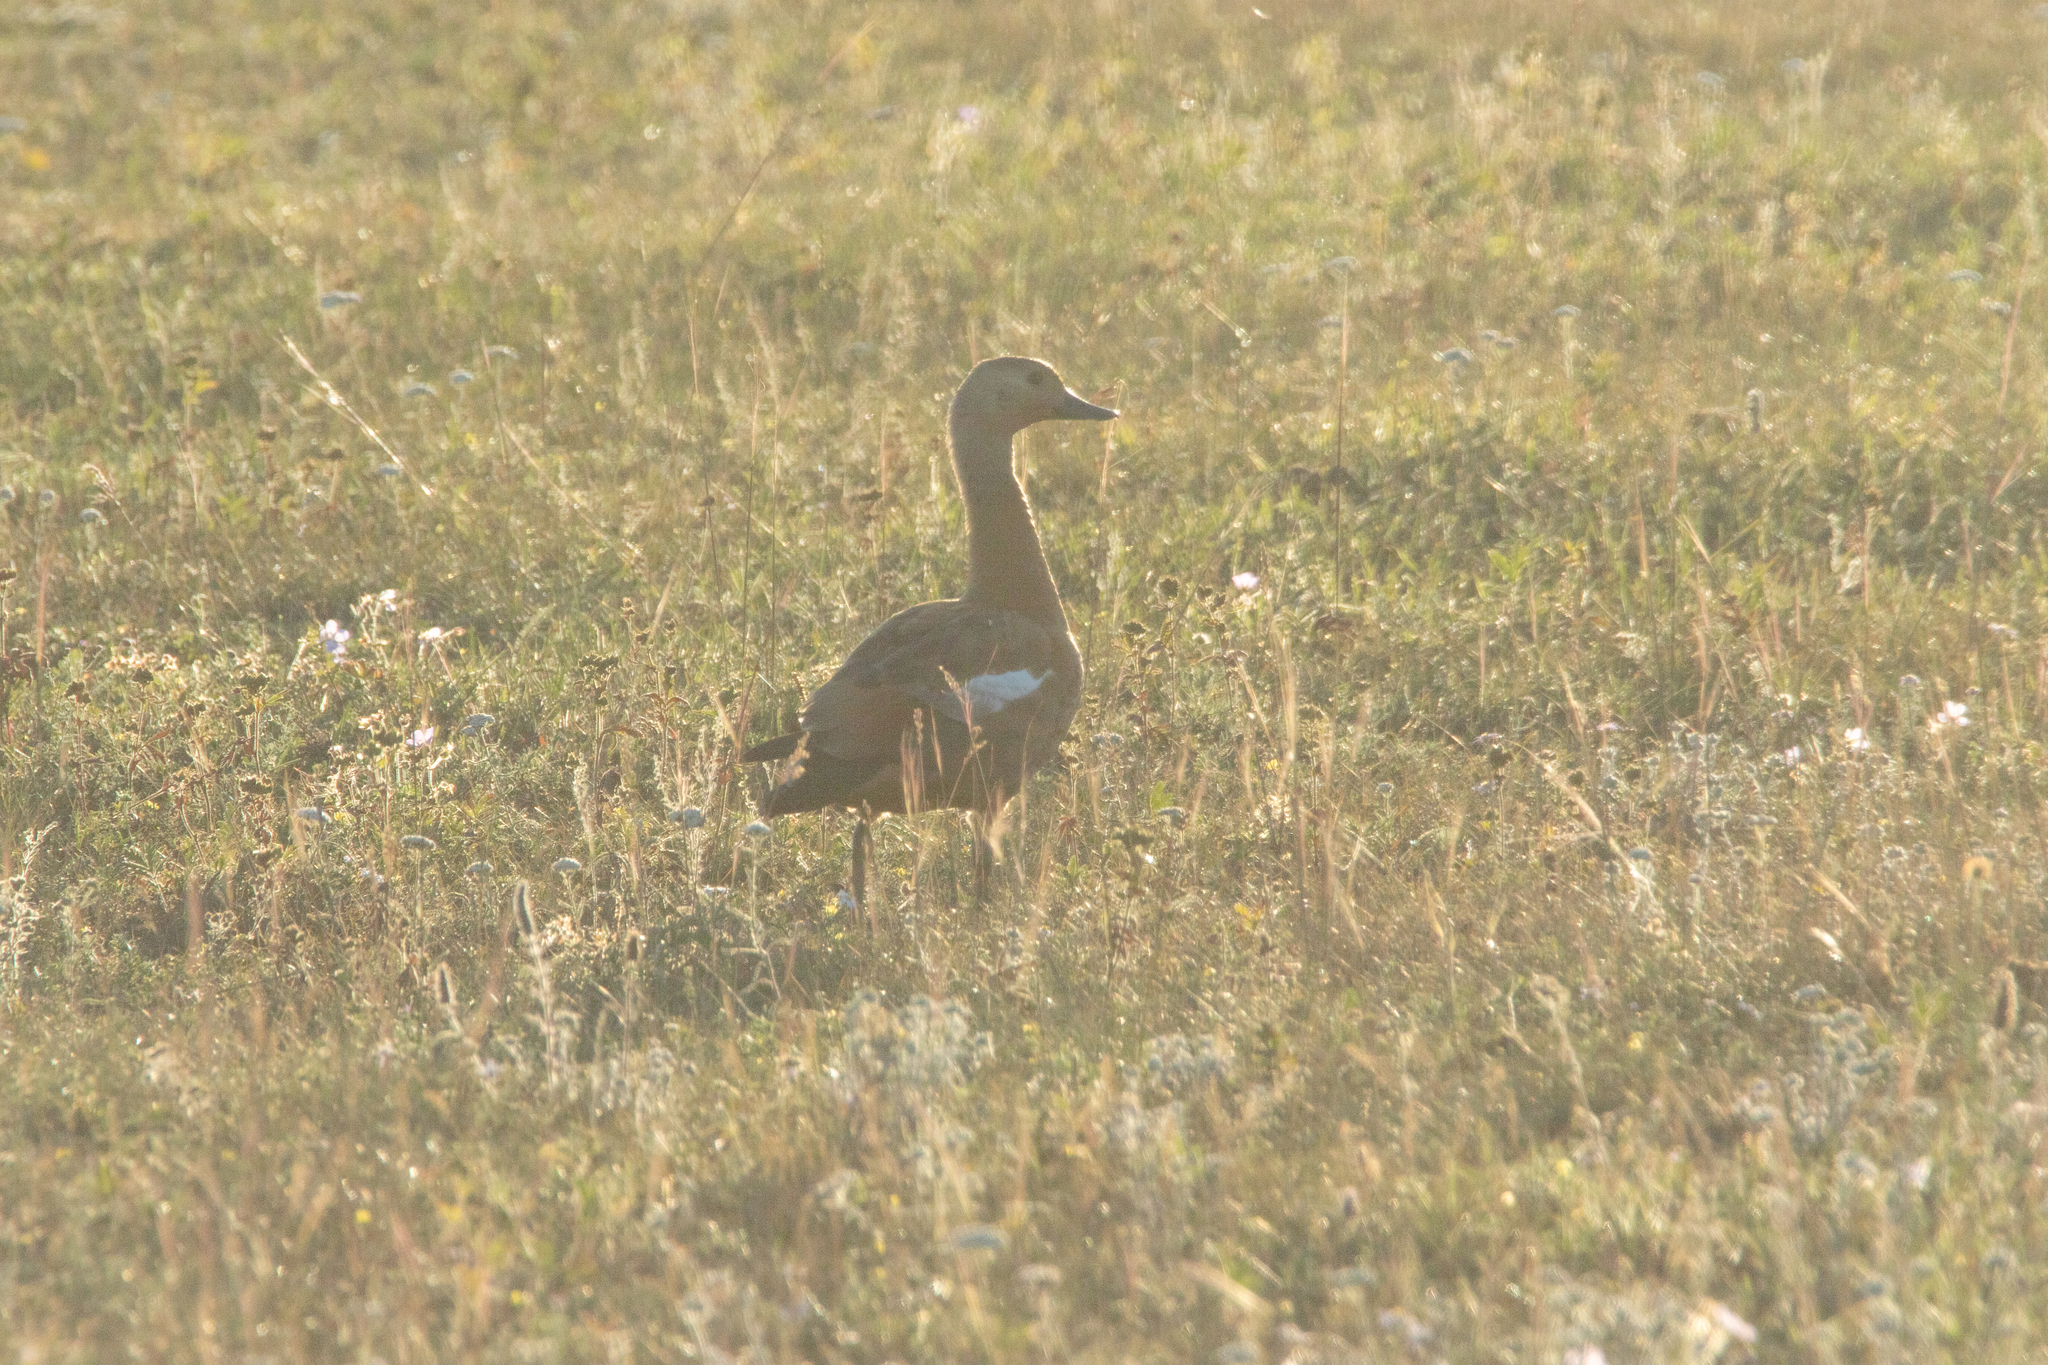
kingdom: Animalia
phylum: Chordata
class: Aves
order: Anseriformes
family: Anatidae
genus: Tadorna
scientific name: Tadorna ferruginea
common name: Ruddy shelduck
